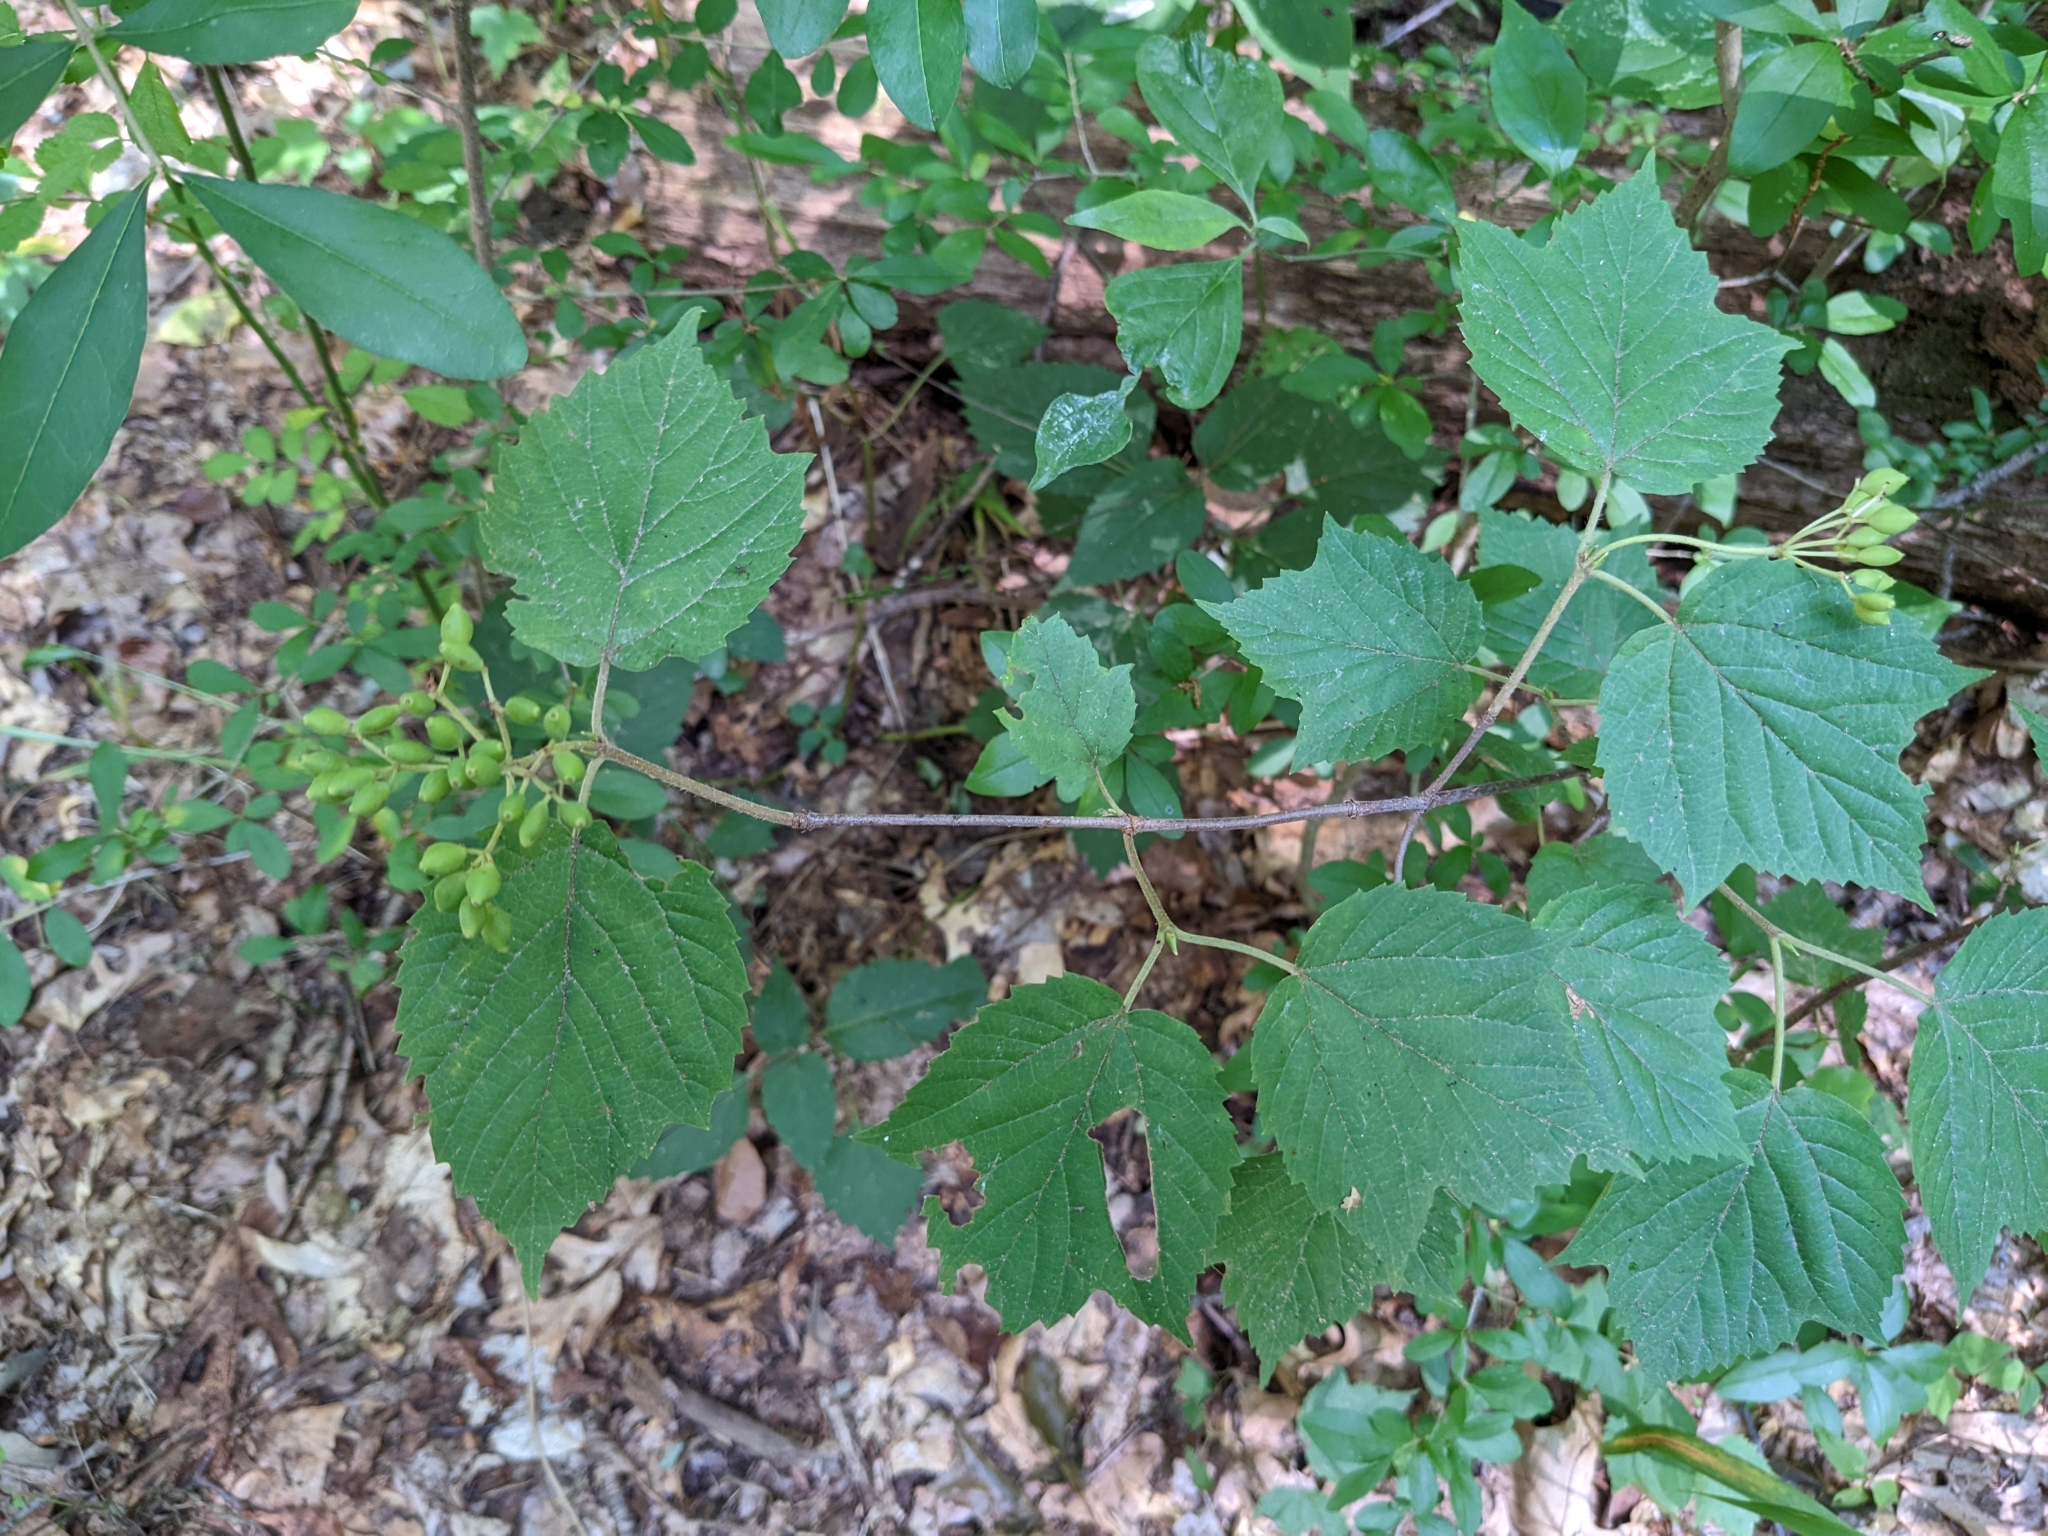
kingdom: Plantae
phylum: Tracheophyta
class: Magnoliopsida
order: Dipsacales
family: Viburnaceae
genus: Viburnum
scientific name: Viburnum acerifolium
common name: Dockmackie
